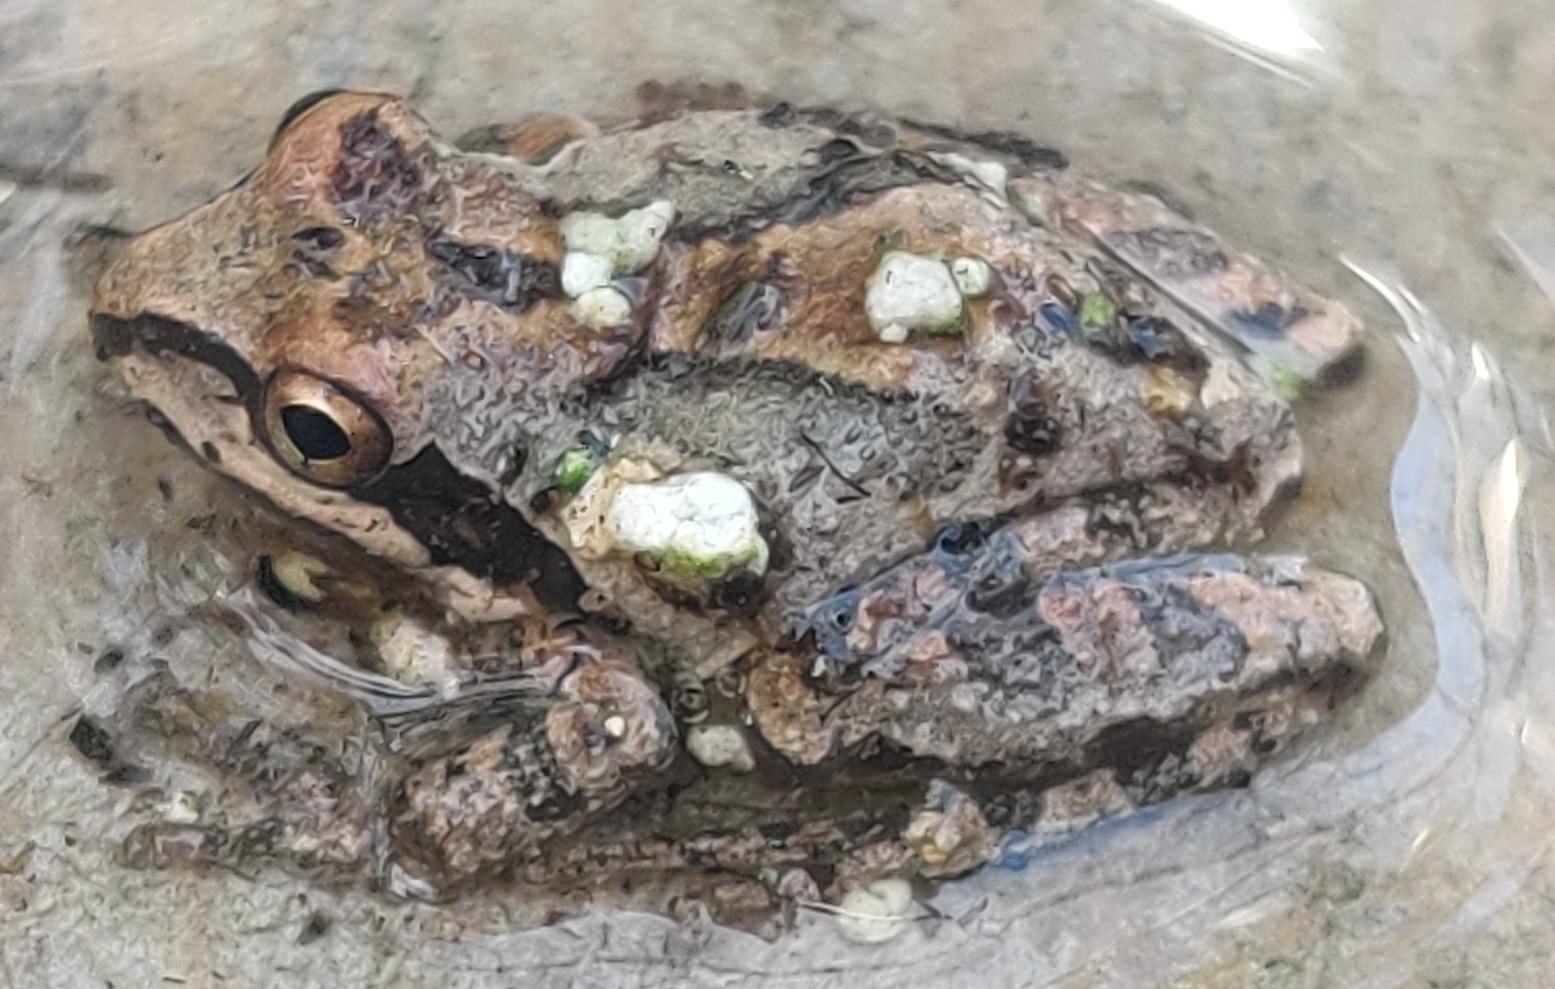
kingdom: Animalia
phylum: Chordata
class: Amphibia
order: Anura
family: Hylidae
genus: Pseudacris
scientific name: Pseudacris regilla
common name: Pacific chorus frog
